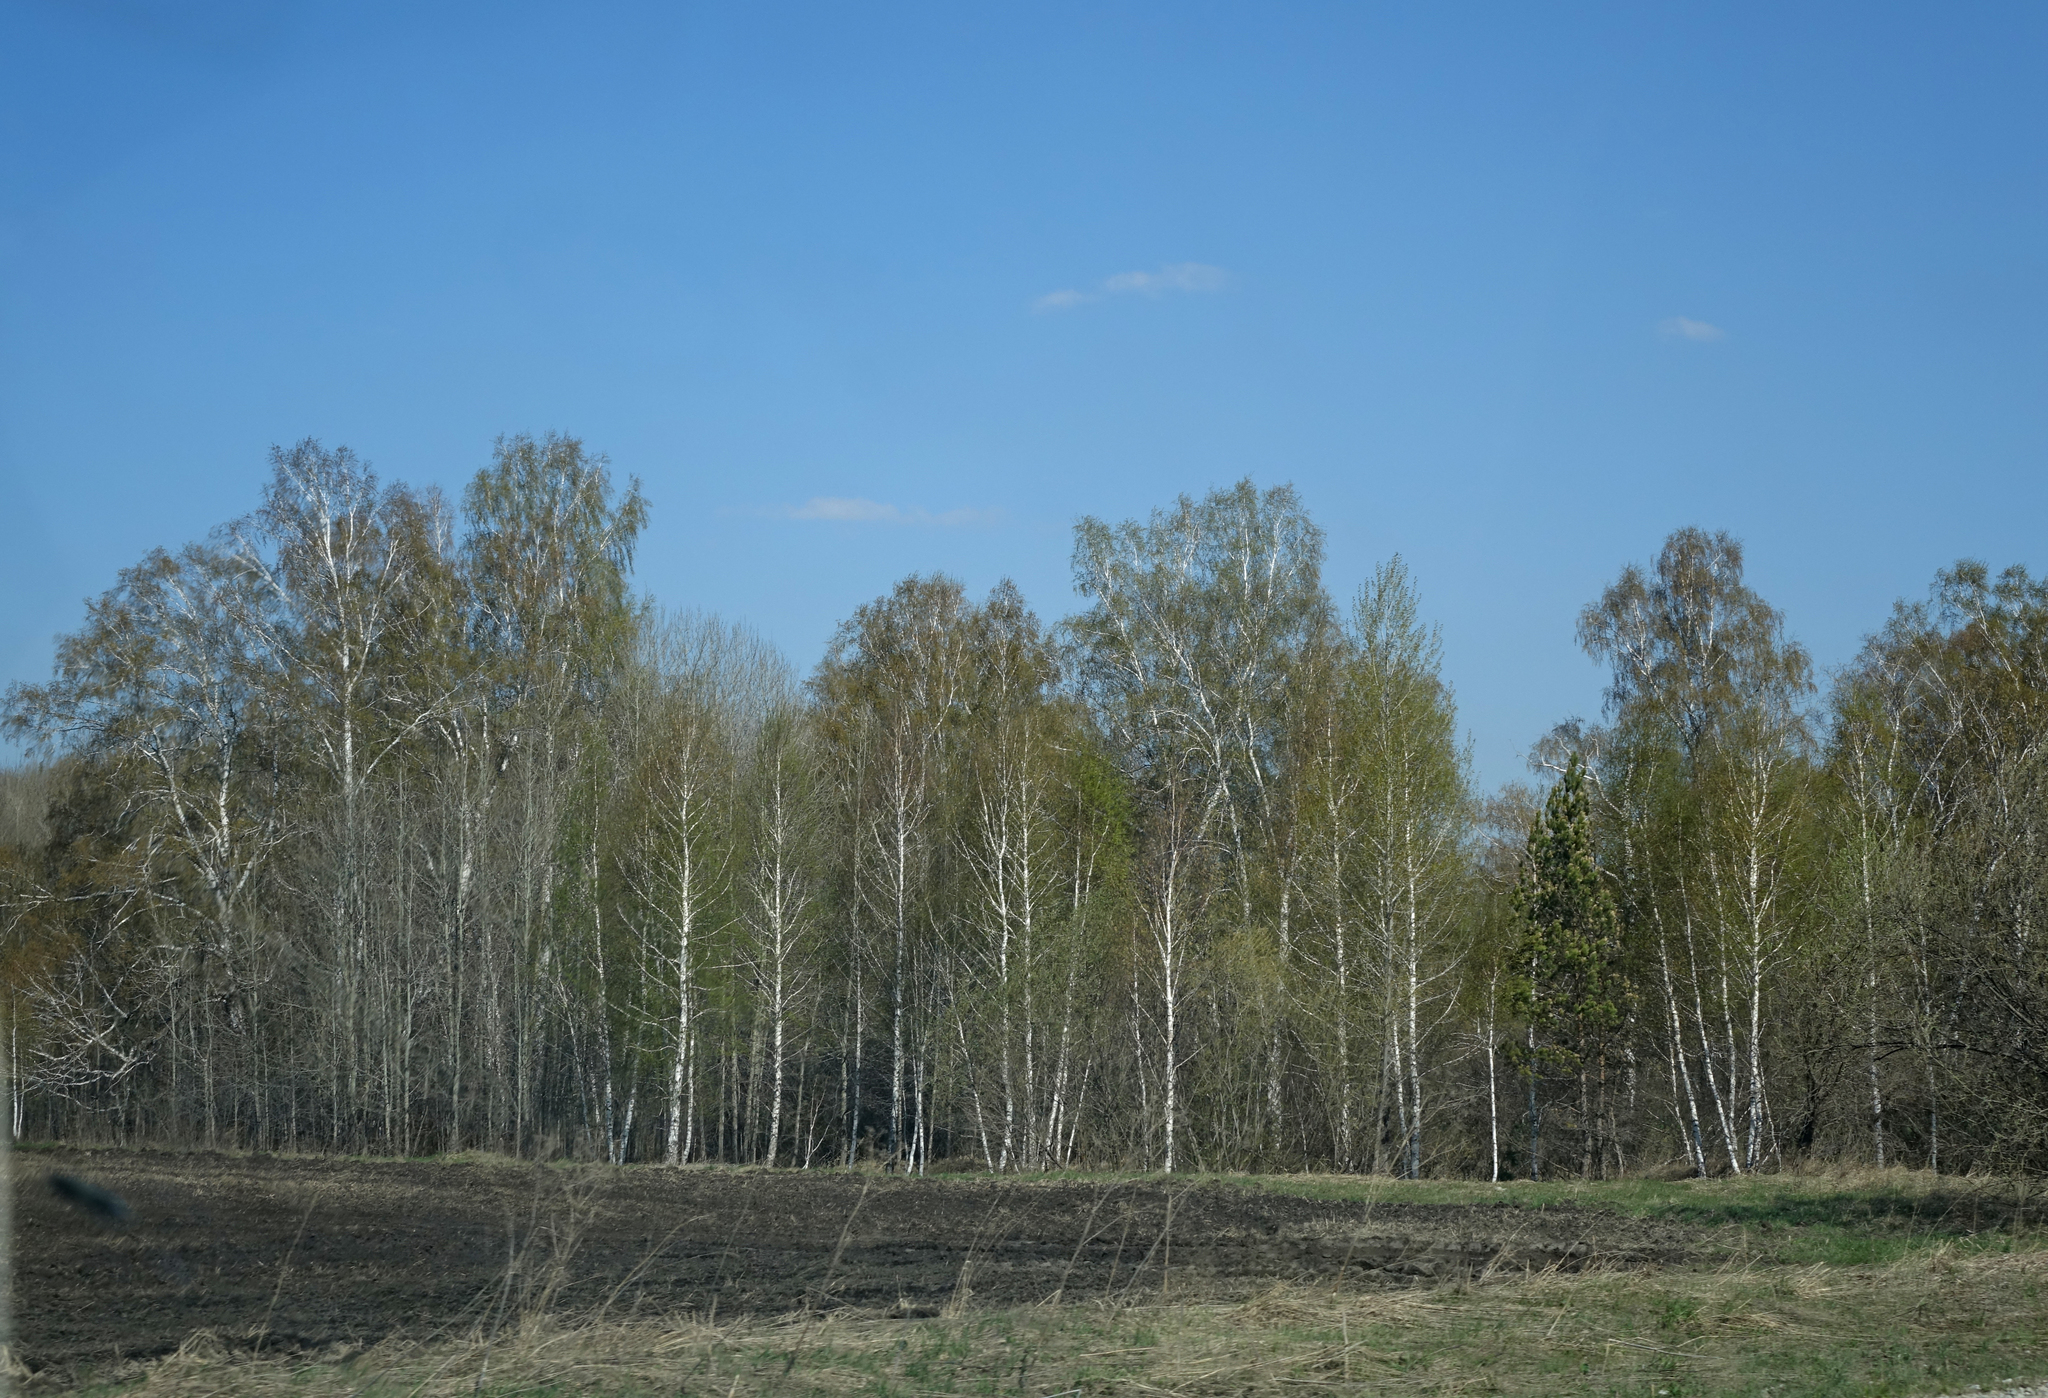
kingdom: Plantae
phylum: Tracheophyta
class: Magnoliopsida
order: Fagales
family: Betulaceae
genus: Betula
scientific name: Betula pendula
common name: Silver birch
